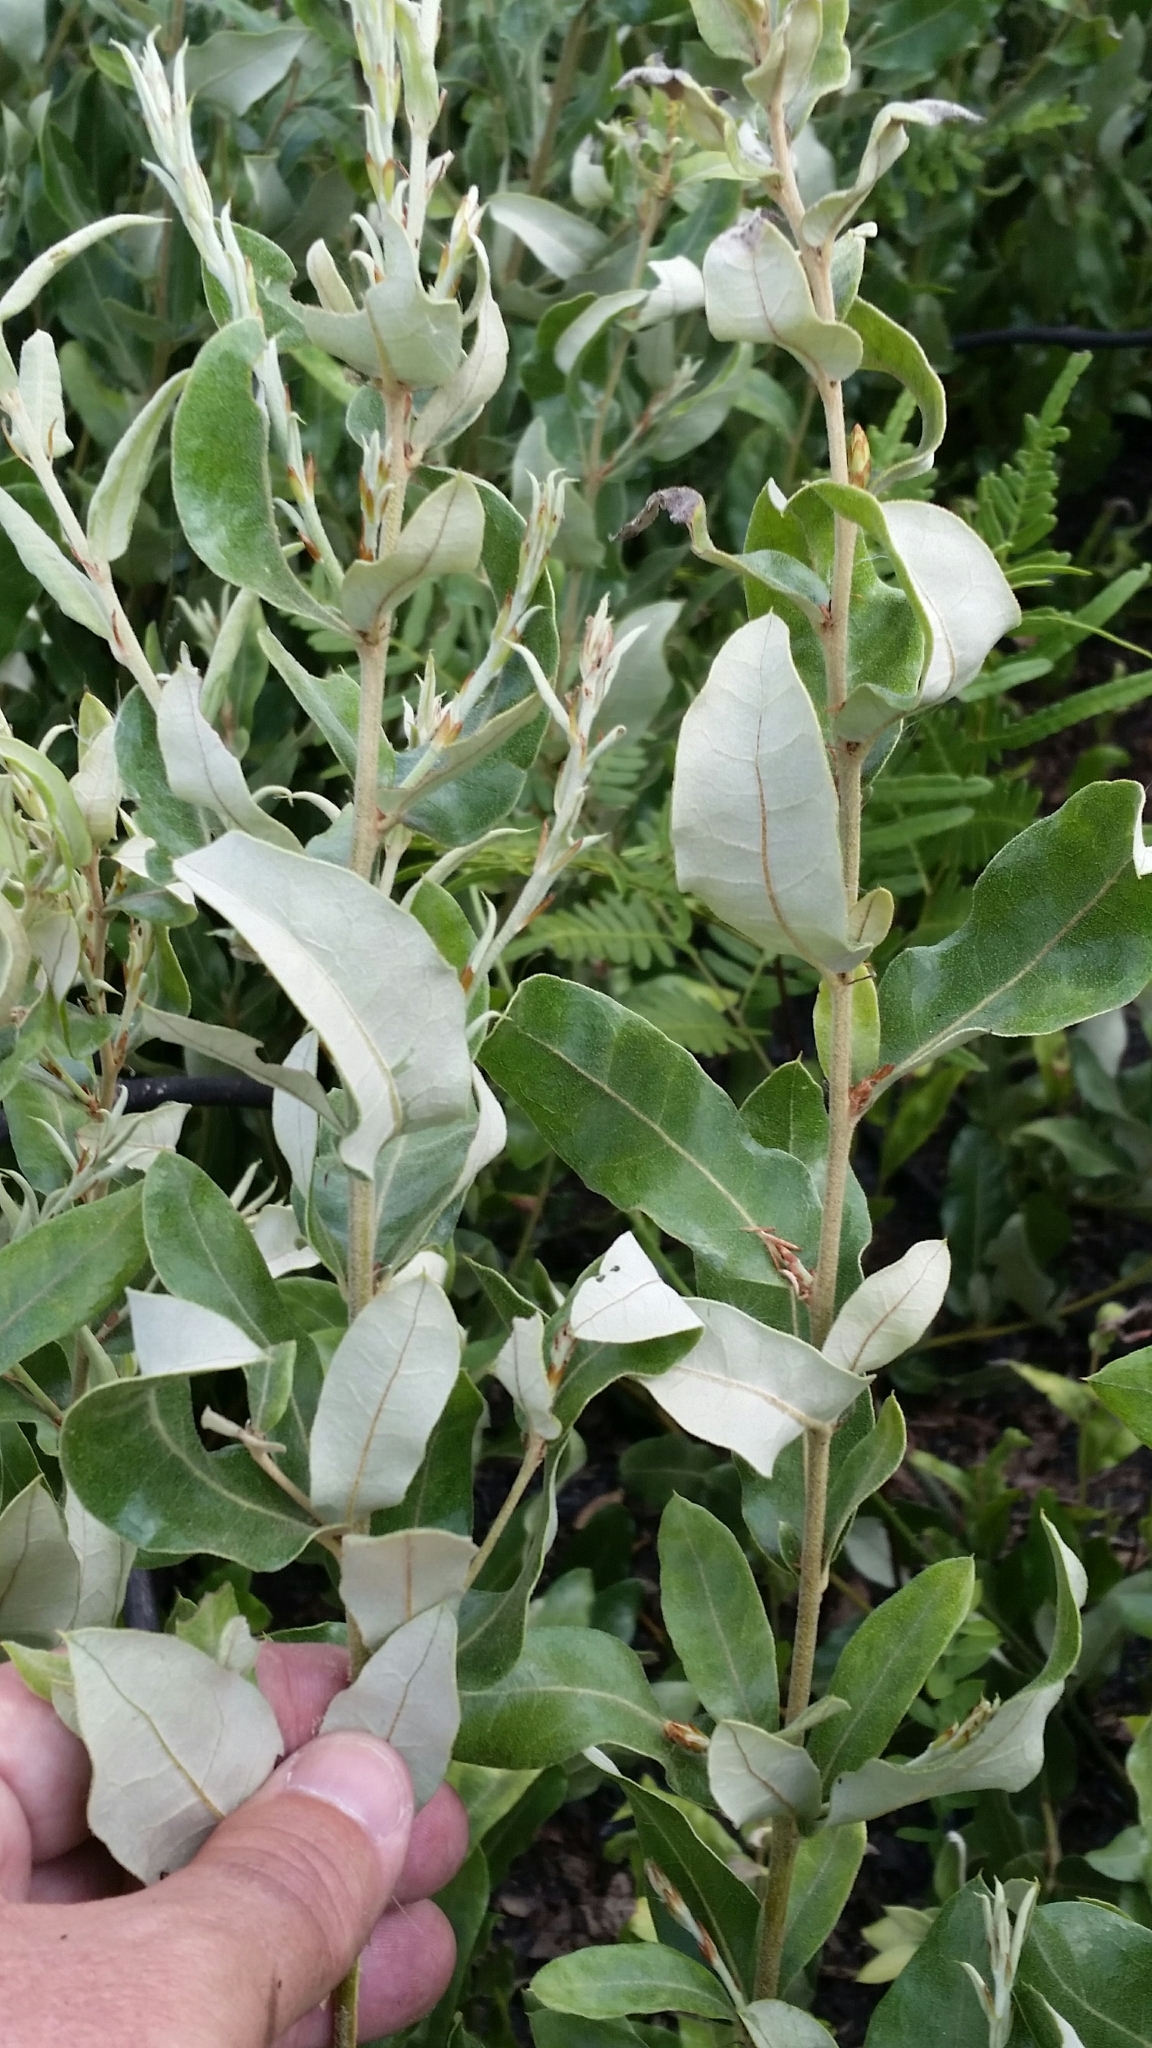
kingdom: Plantae
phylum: Tracheophyta
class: Magnoliopsida
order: Fagales
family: Fagaceae
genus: Quercus
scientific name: Quercus pumila
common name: Runner oak
